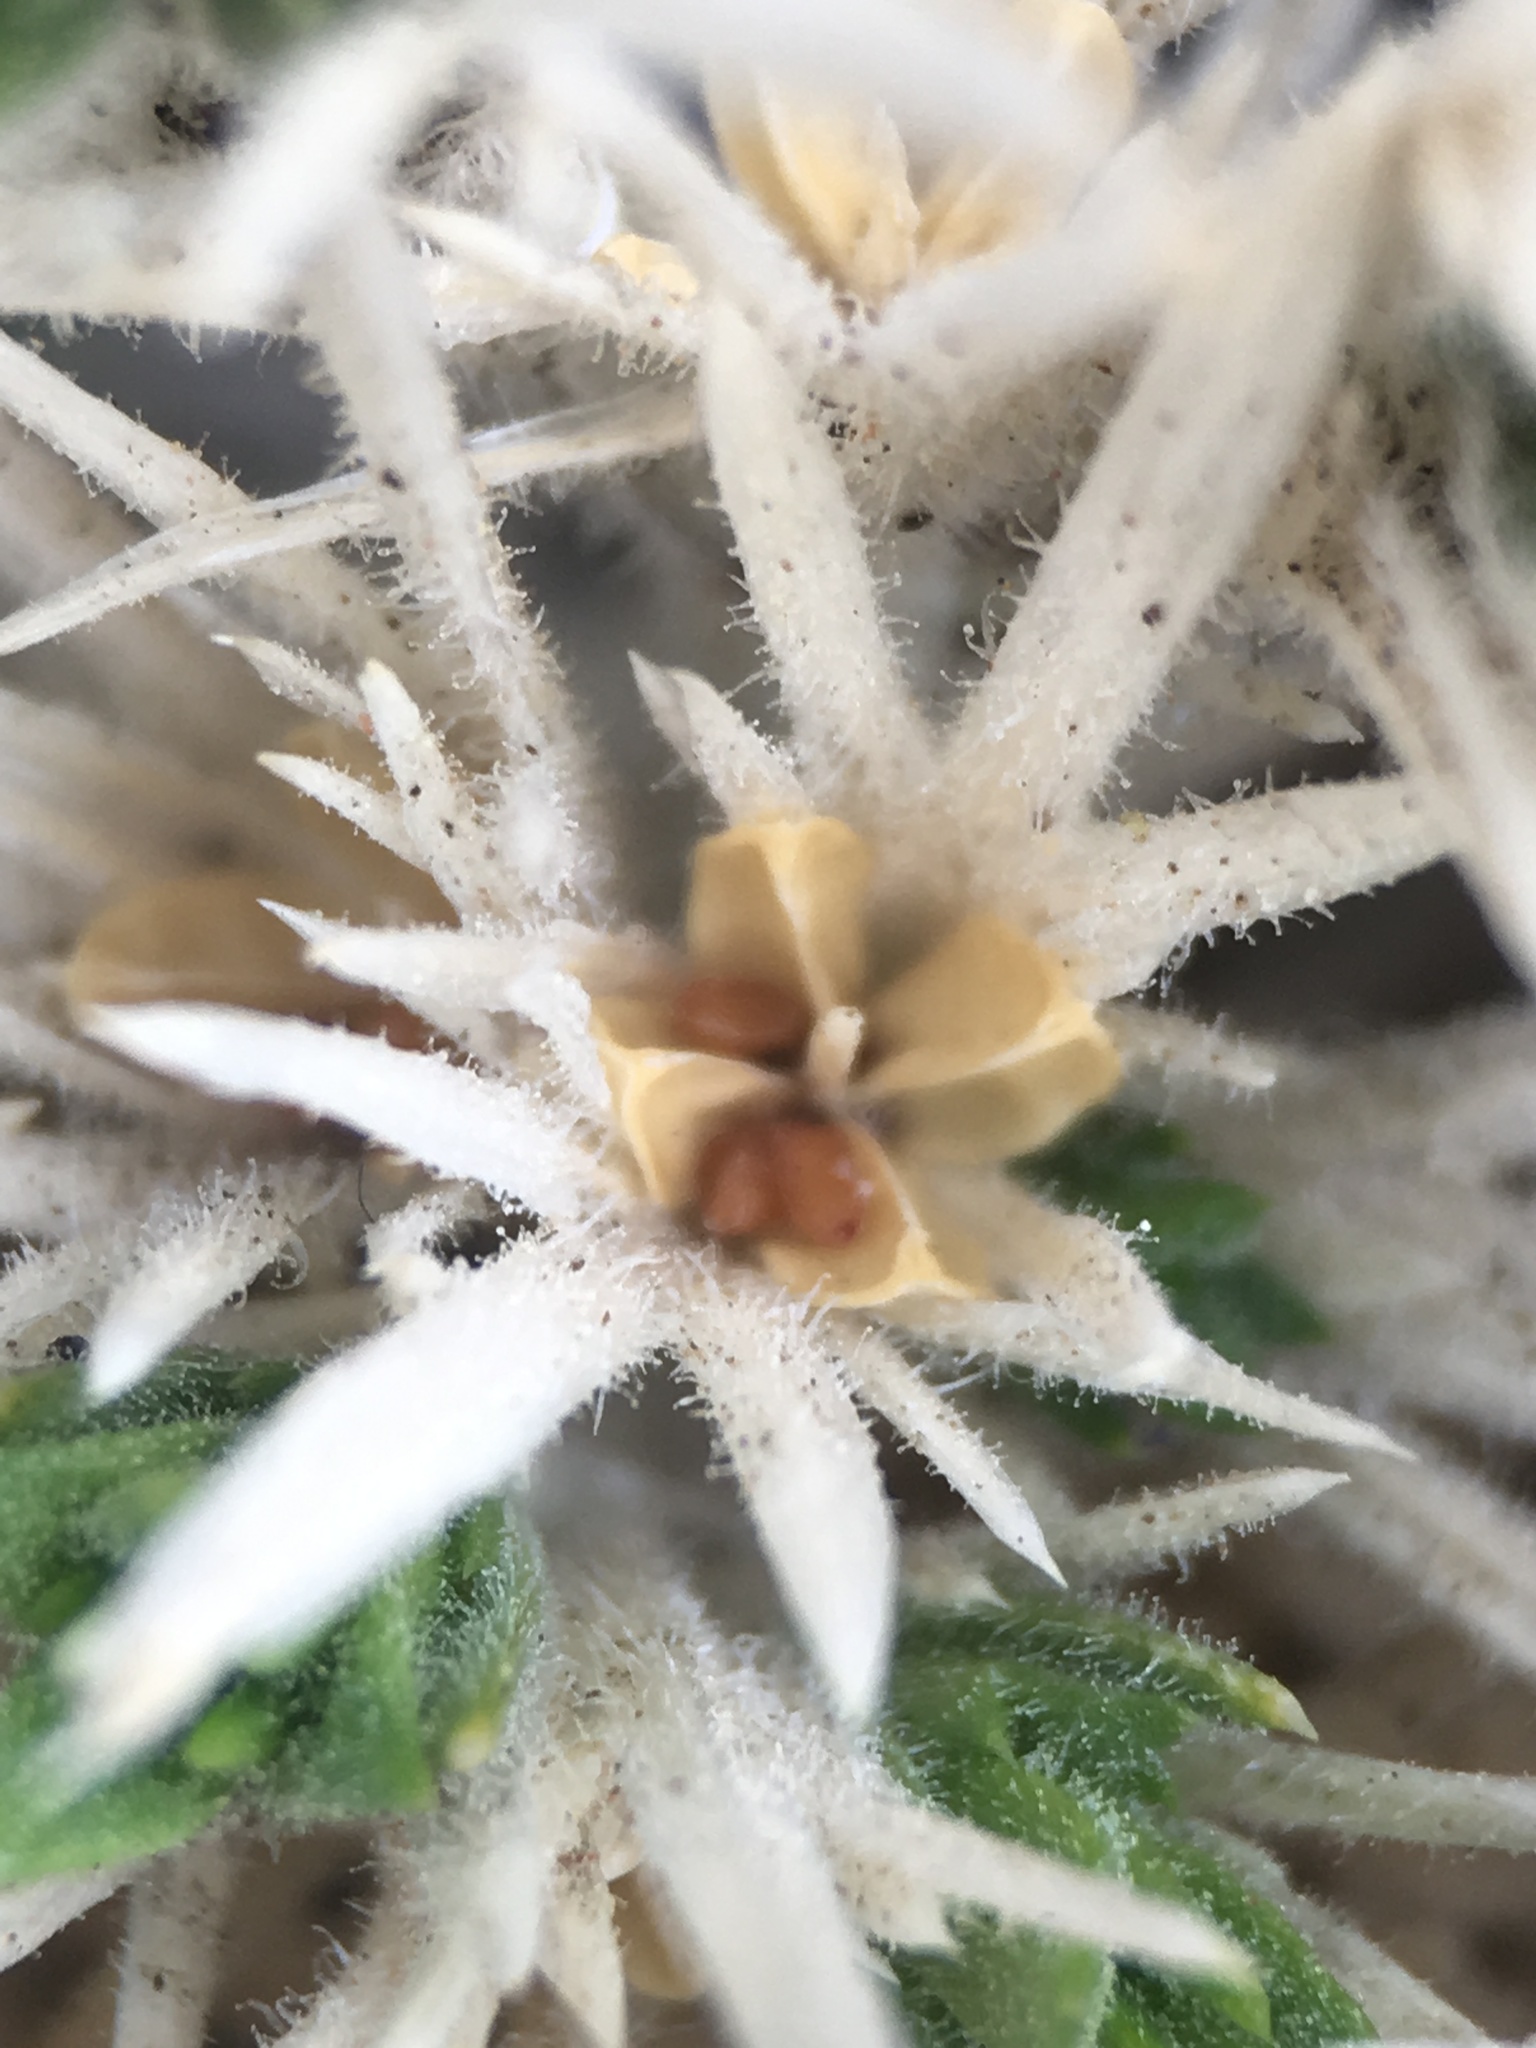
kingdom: Plantae
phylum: Tracheophyta
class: Magnoliopsida
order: Ericales
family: Polemoniaceae
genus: Linanthus
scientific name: Linanthus jaegeri
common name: San jacinto prickly phlox
